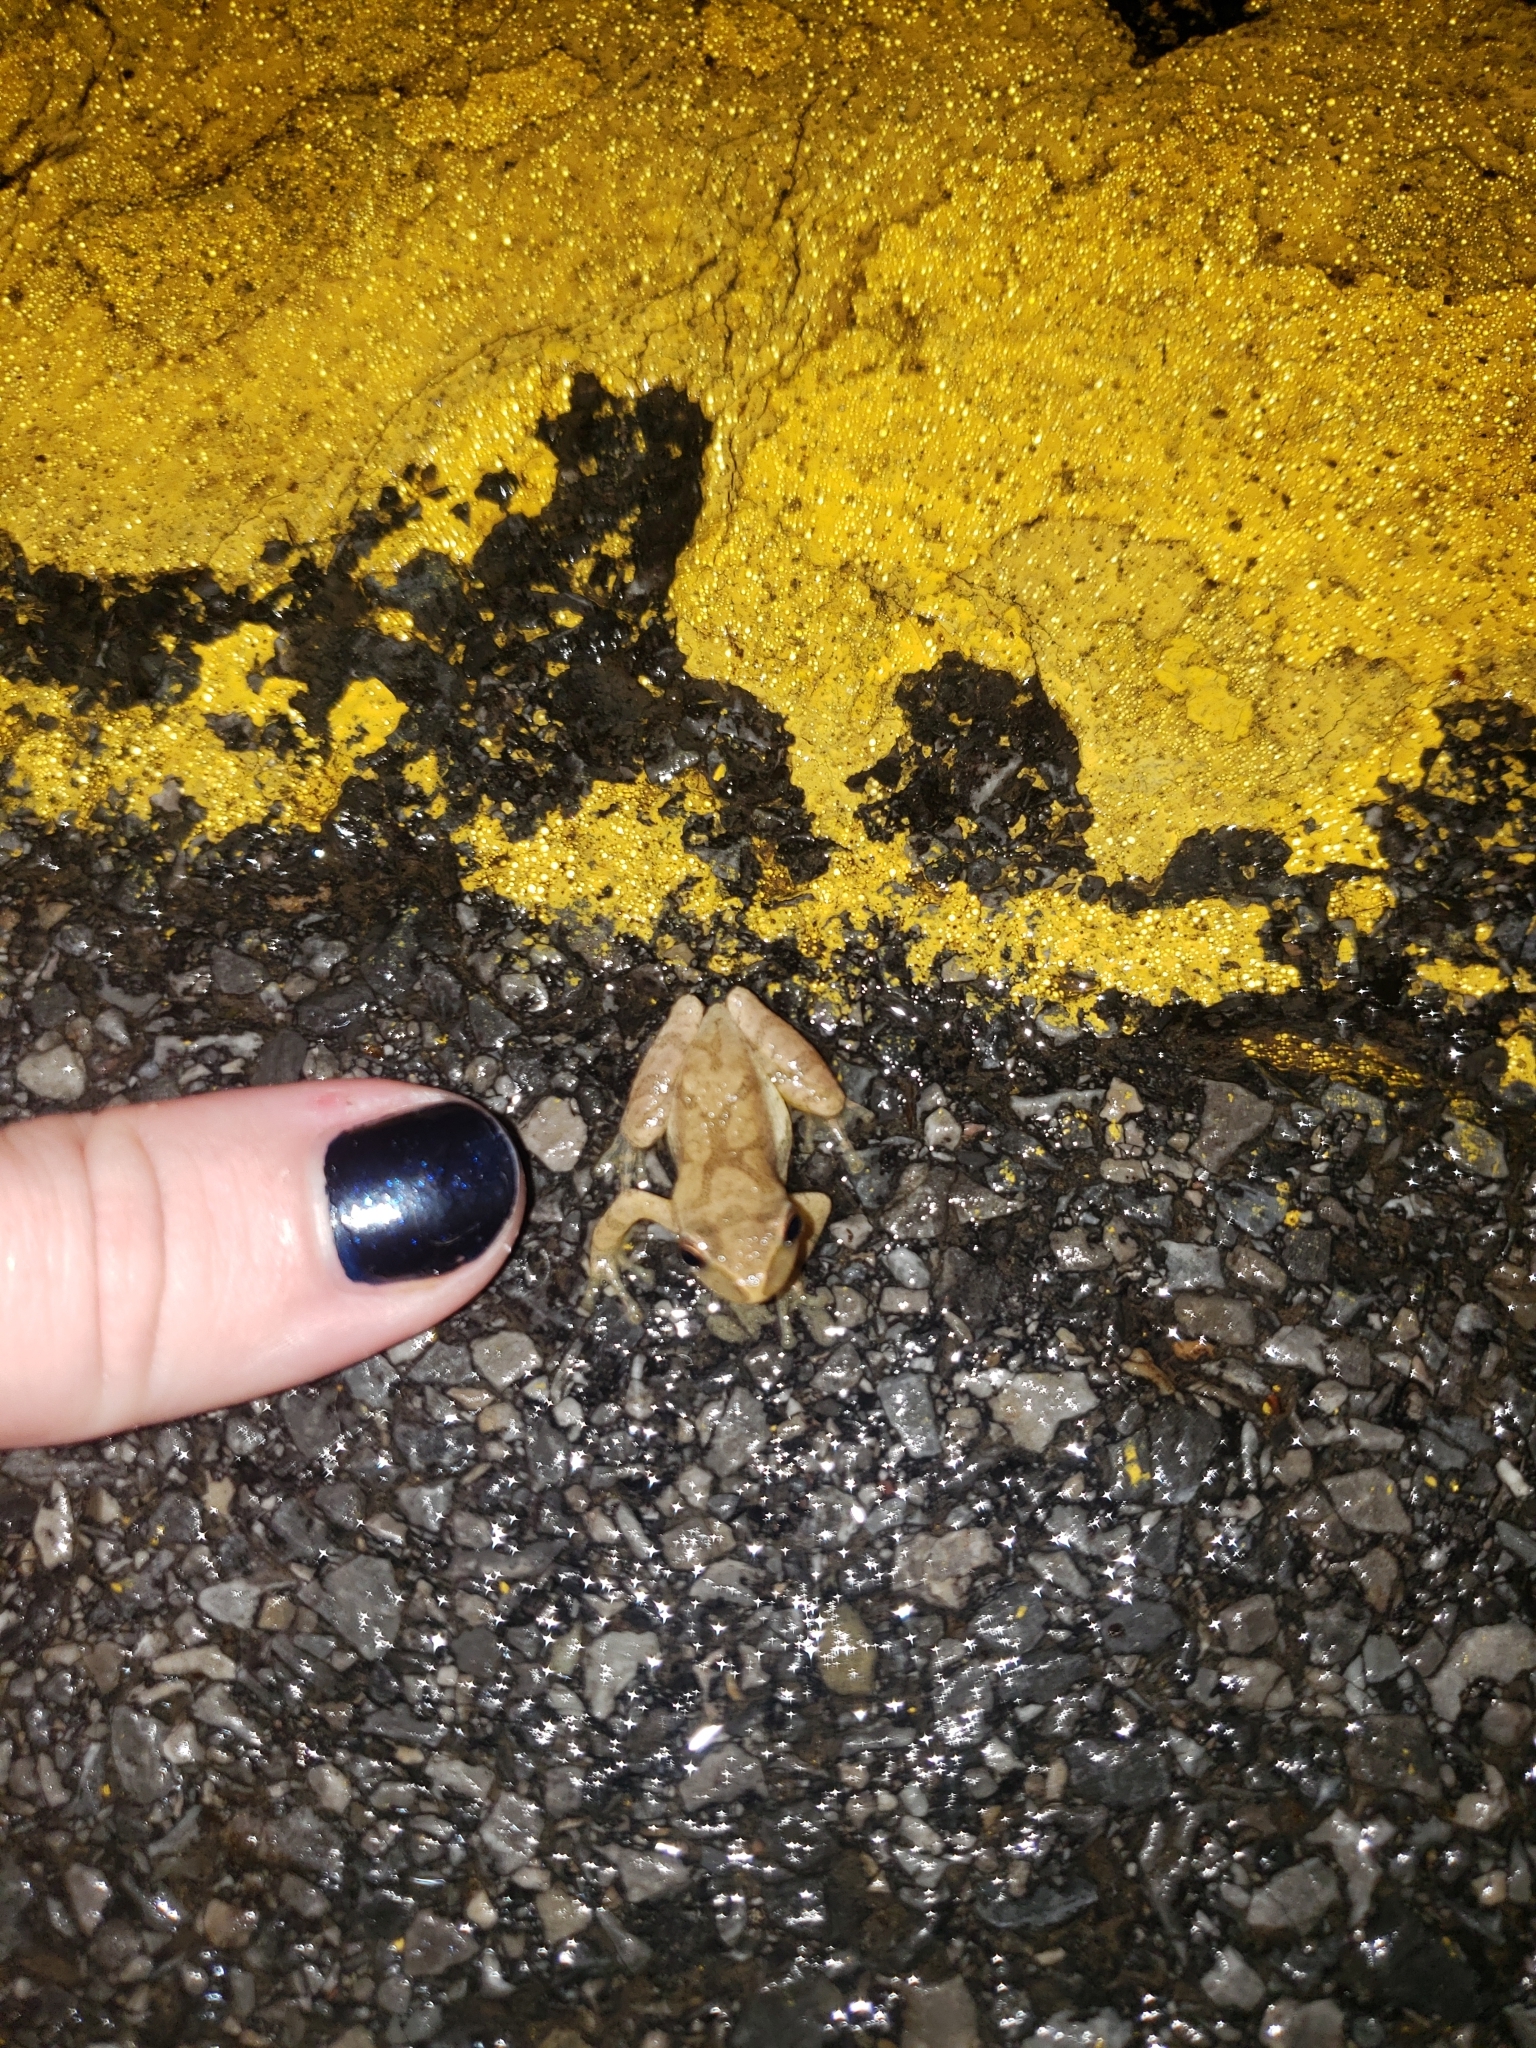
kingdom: Animalia
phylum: Chordata
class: Amphibia
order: Anura
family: Hylidae
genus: Pseudacris
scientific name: Pseudacris crucifer
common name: Spring peeper
